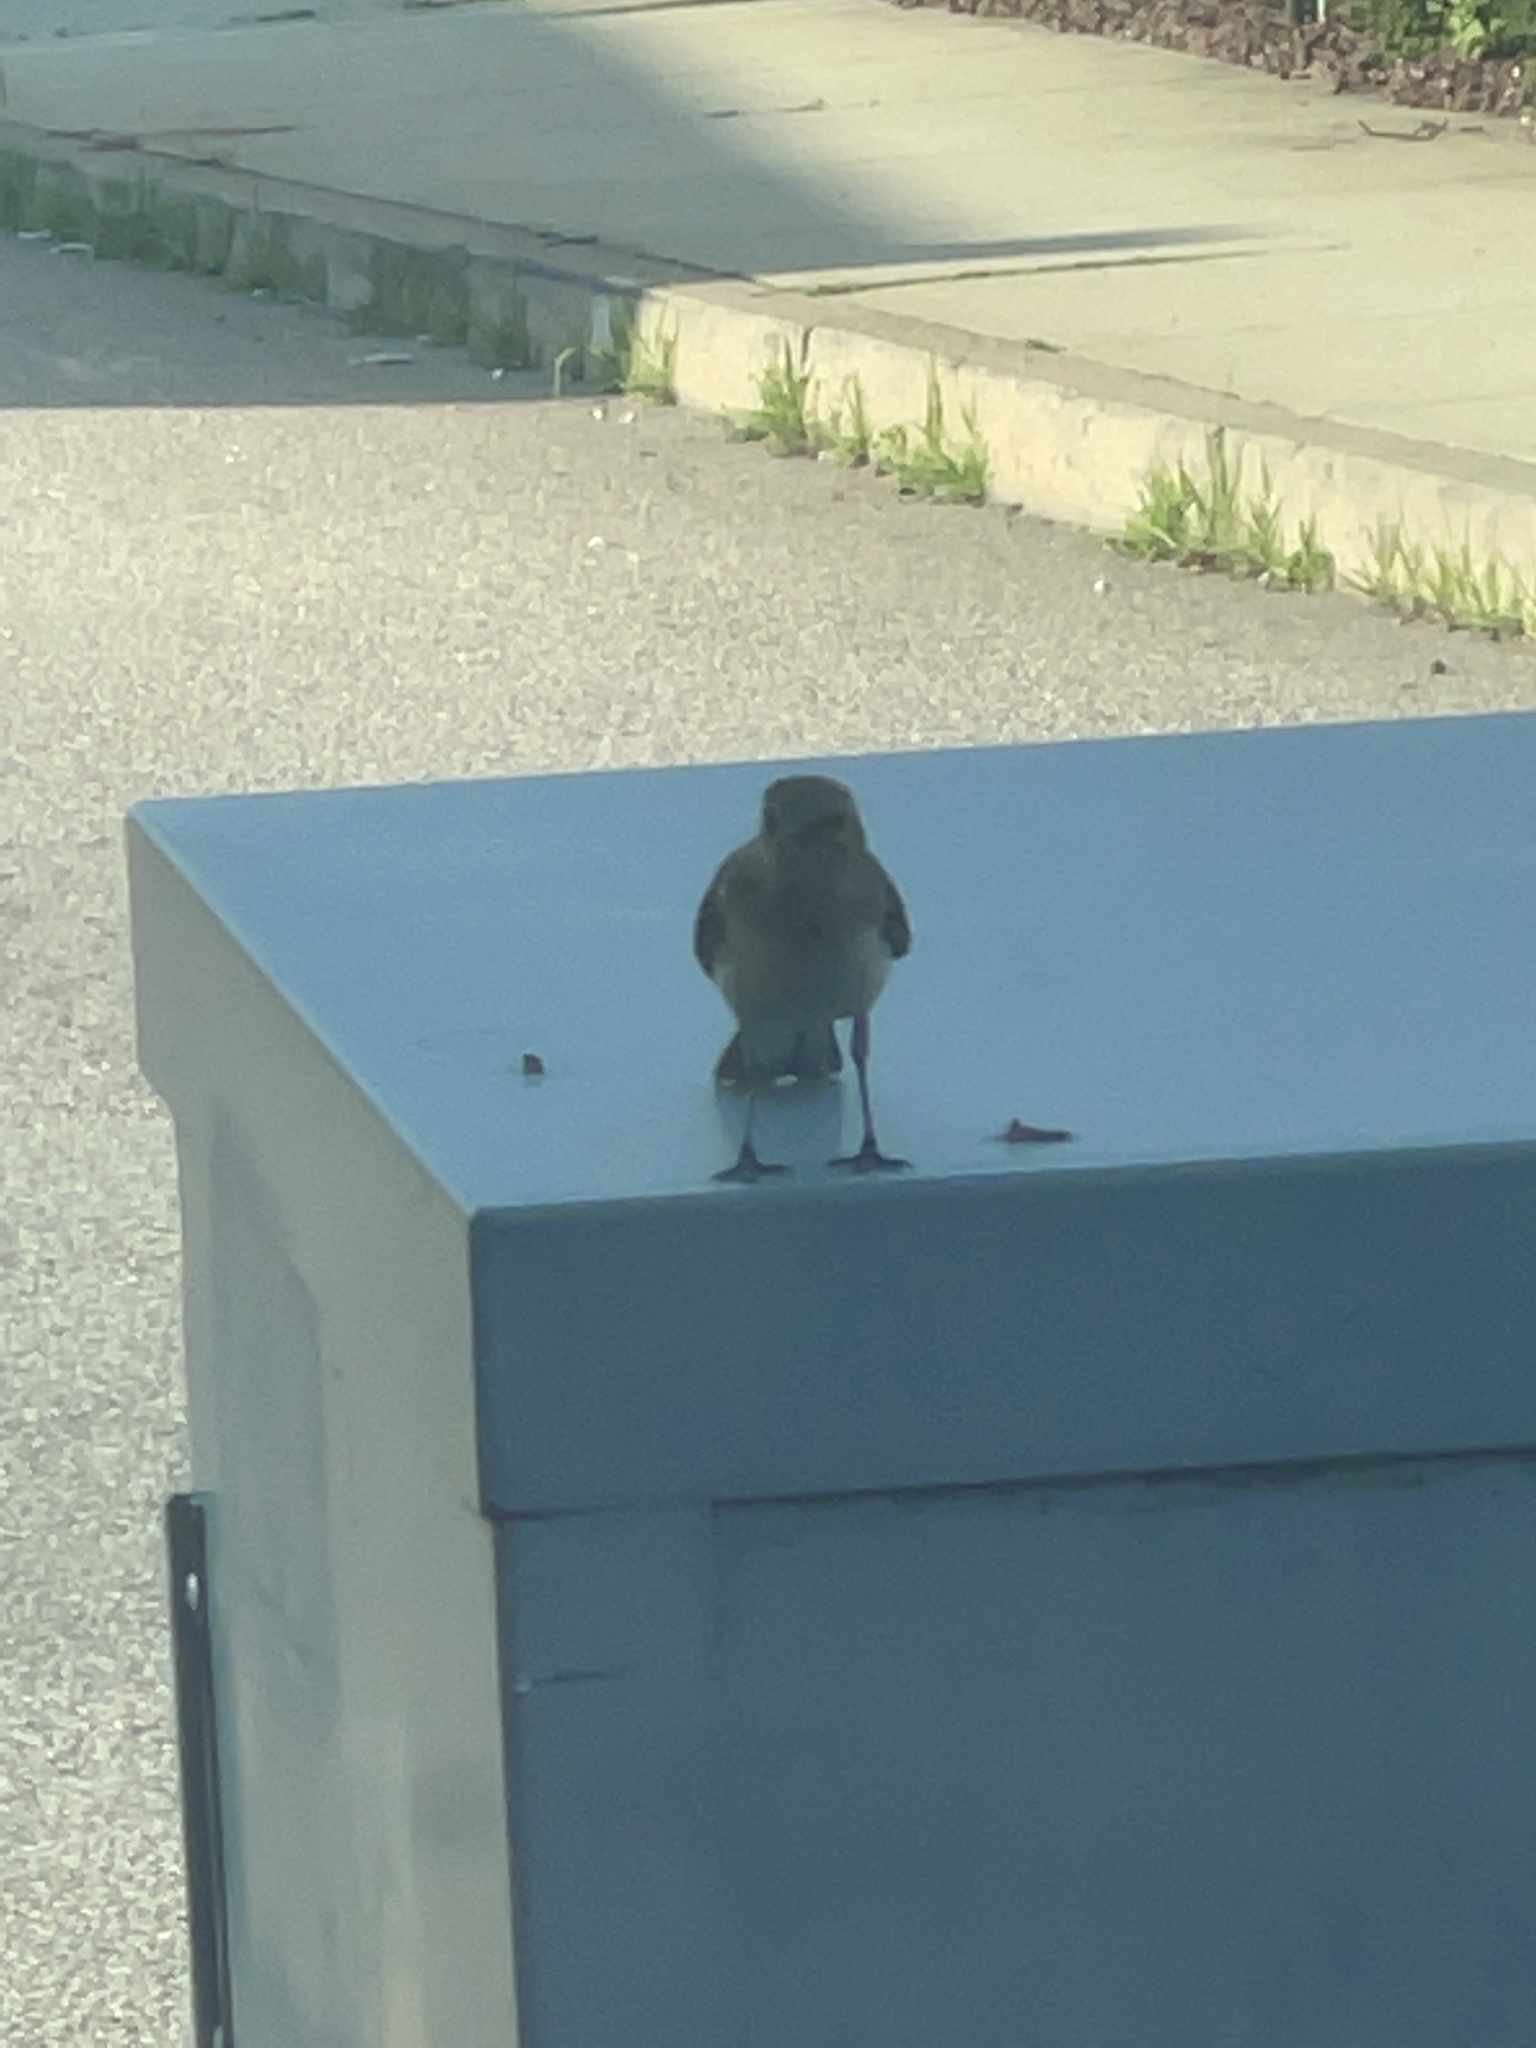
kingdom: Animalia
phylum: Chordata
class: Aves
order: Passeriformes
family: Mimidae
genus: Mimus
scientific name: Mimus polyglottos
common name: Northern mockingbird
